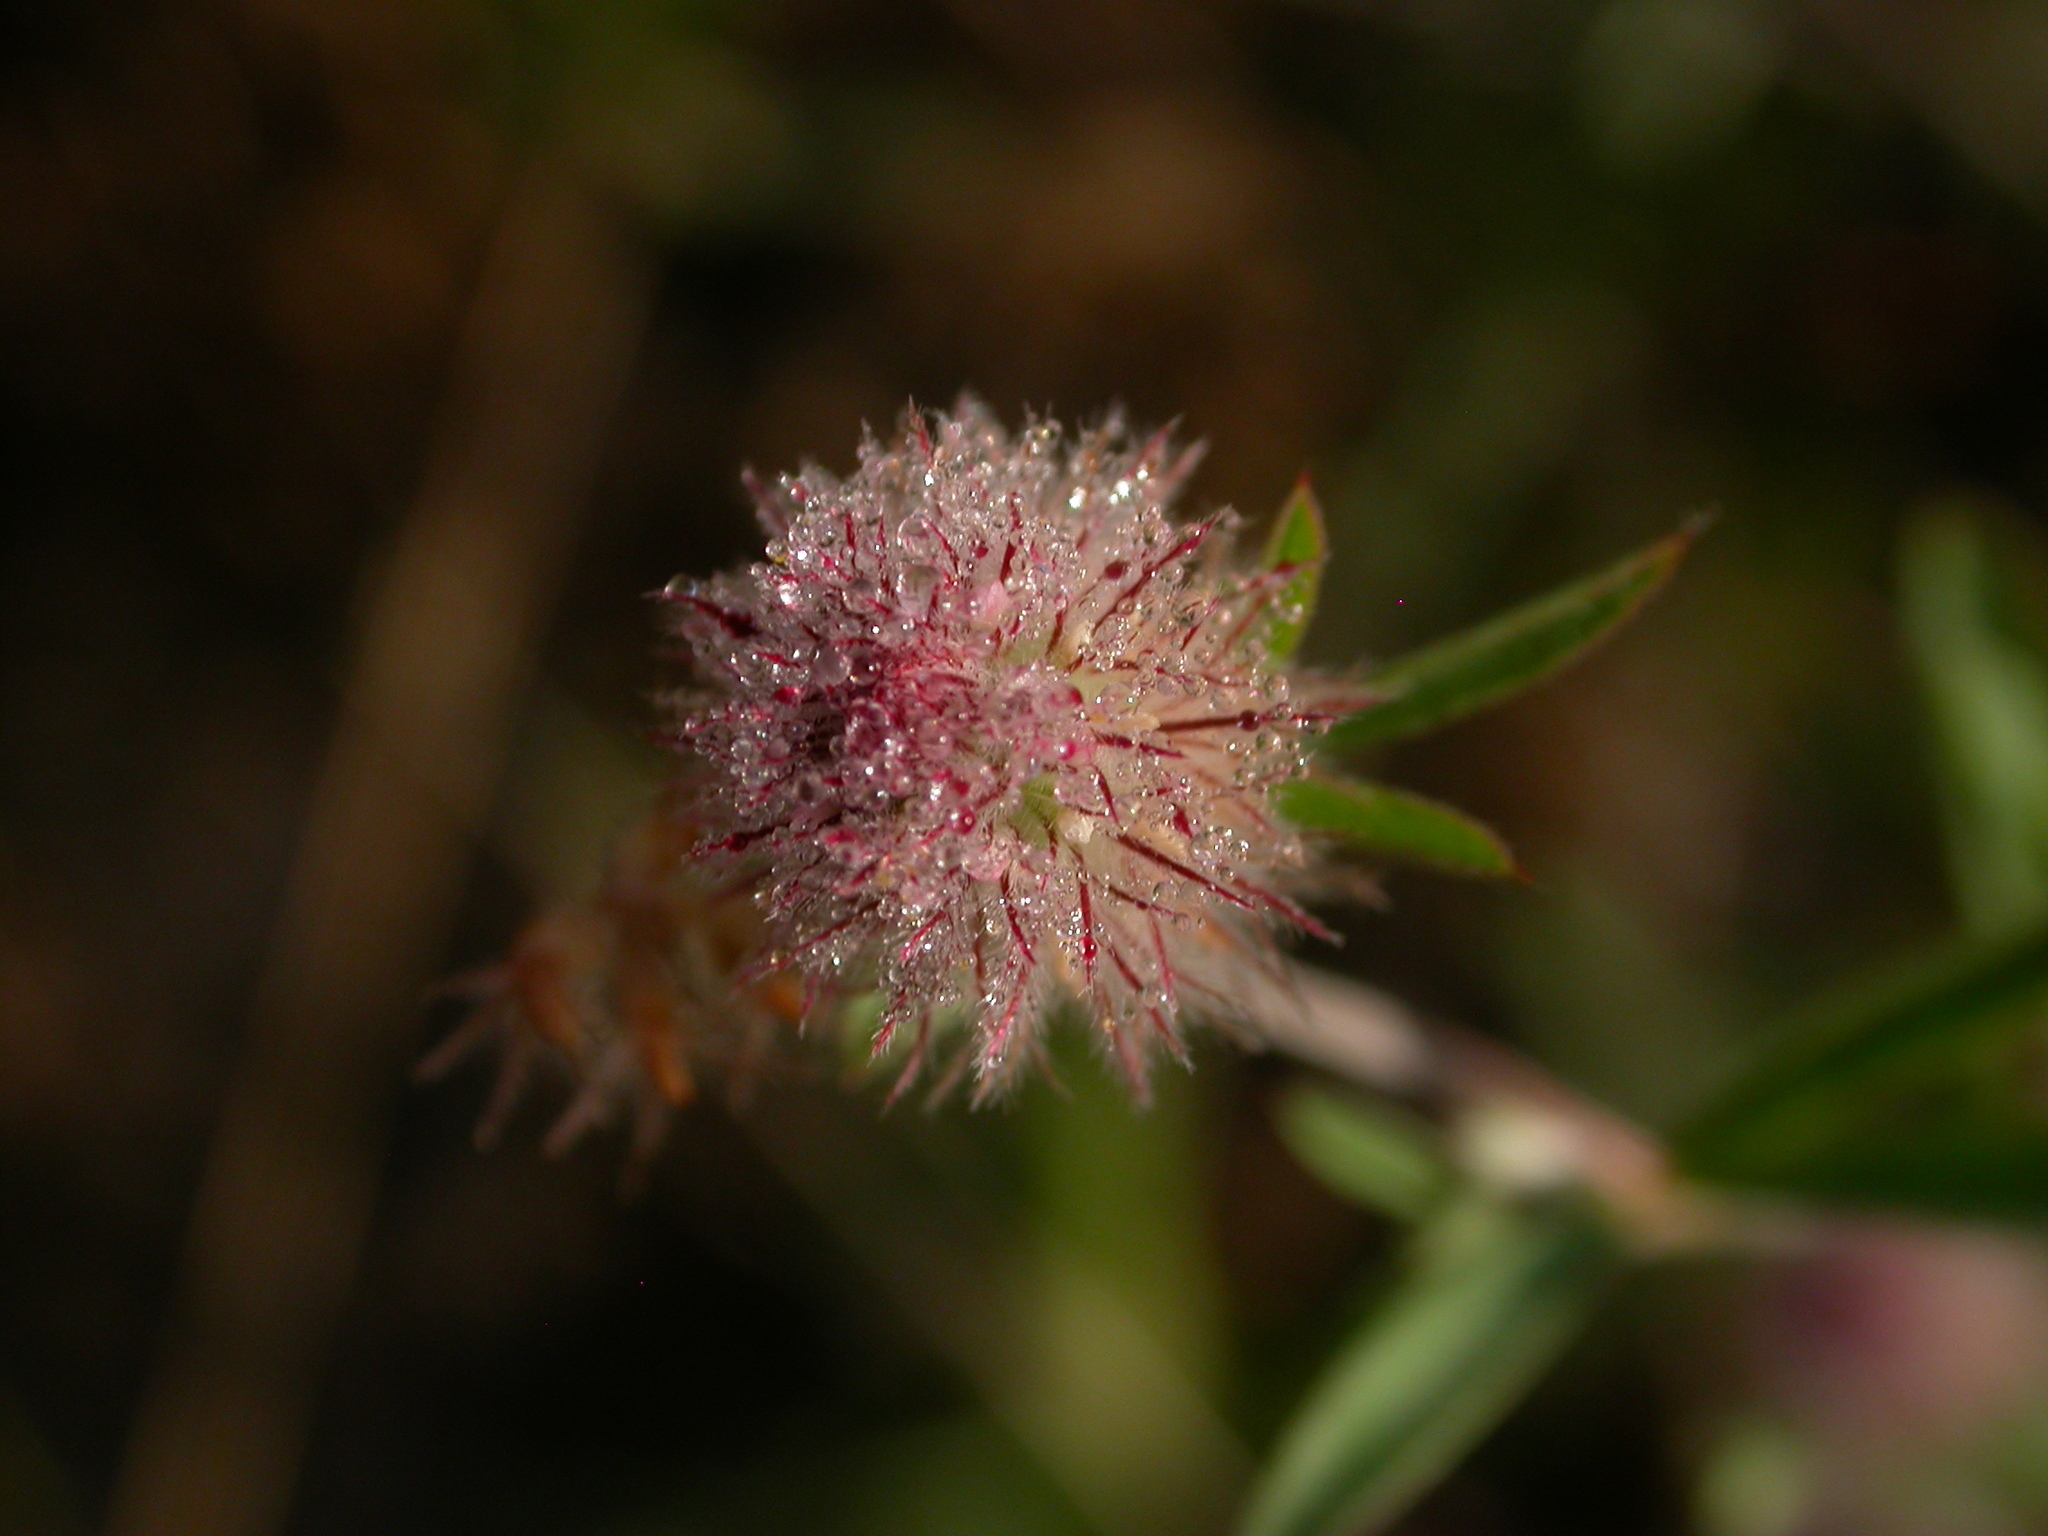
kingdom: Plantae
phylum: Tracheophyta
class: Magnoliopsida
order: Fabales
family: Fabaceae
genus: Trifolium
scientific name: Trifolium arvense
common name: Hare's-foot clover
